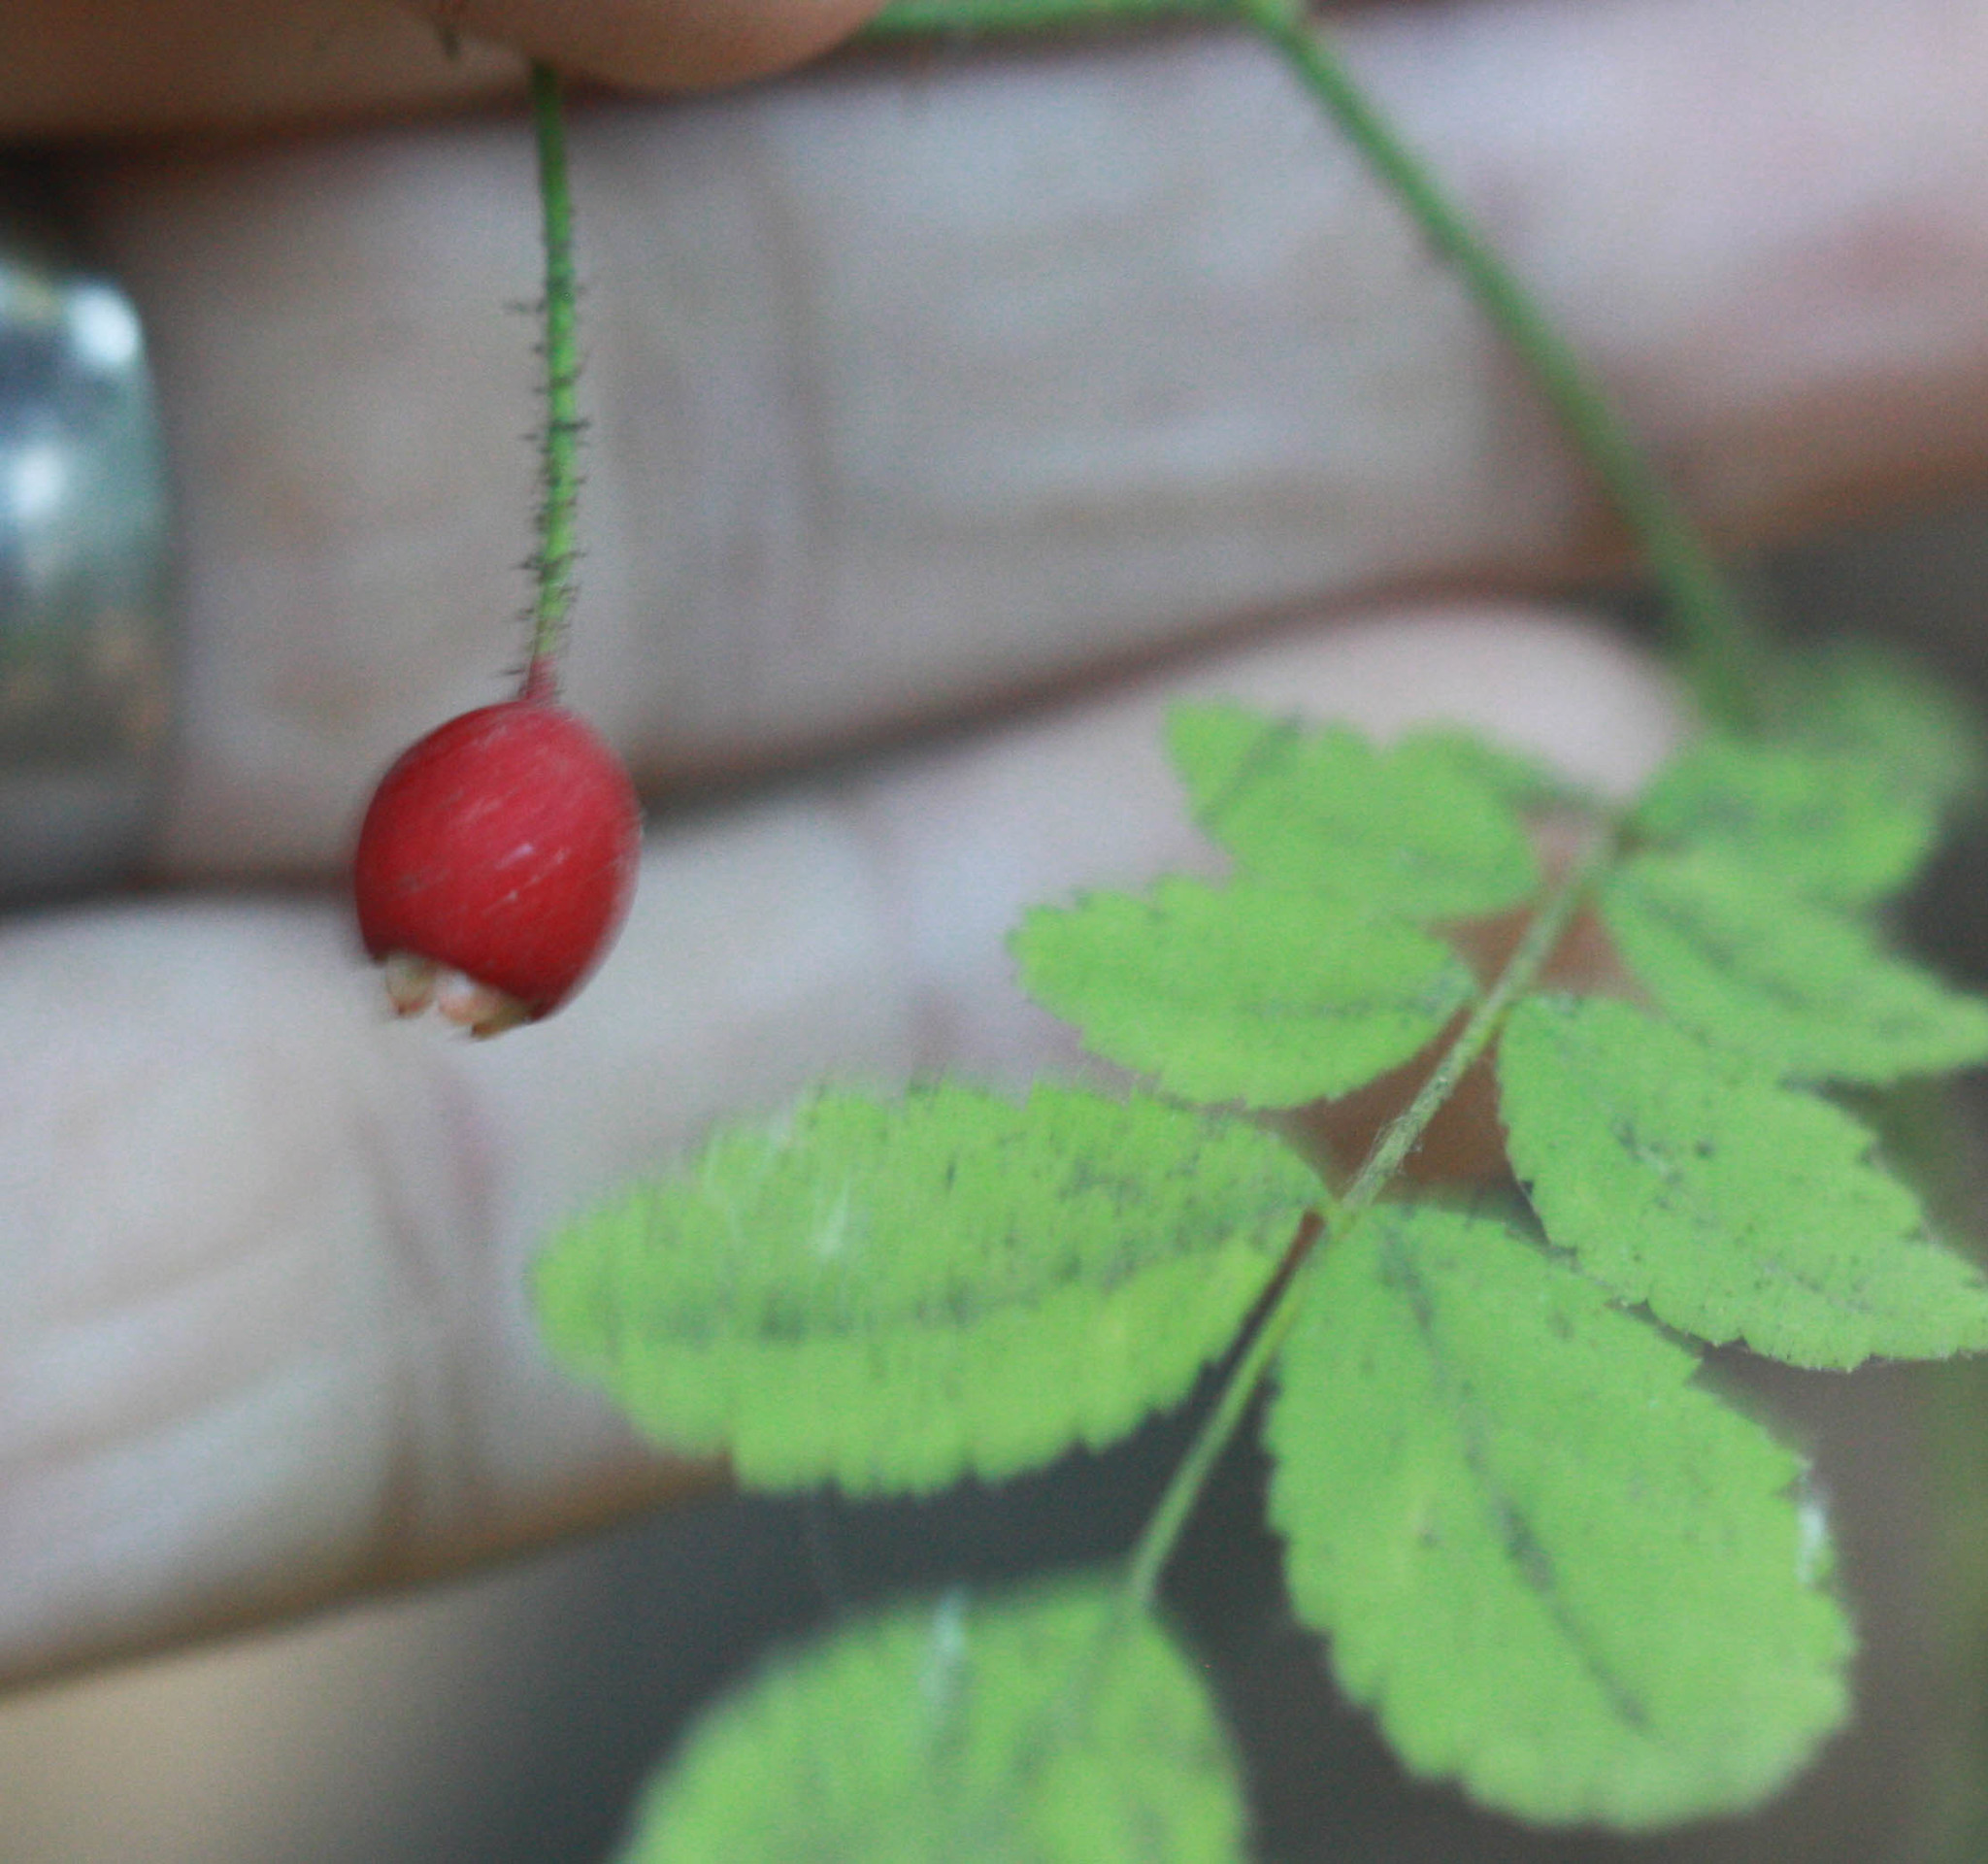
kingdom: Plantae
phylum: Tracheophyta
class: Magnoliopsida
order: Rosales
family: Rosaceae
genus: Rosa
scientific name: Rosa gymnocarpa
